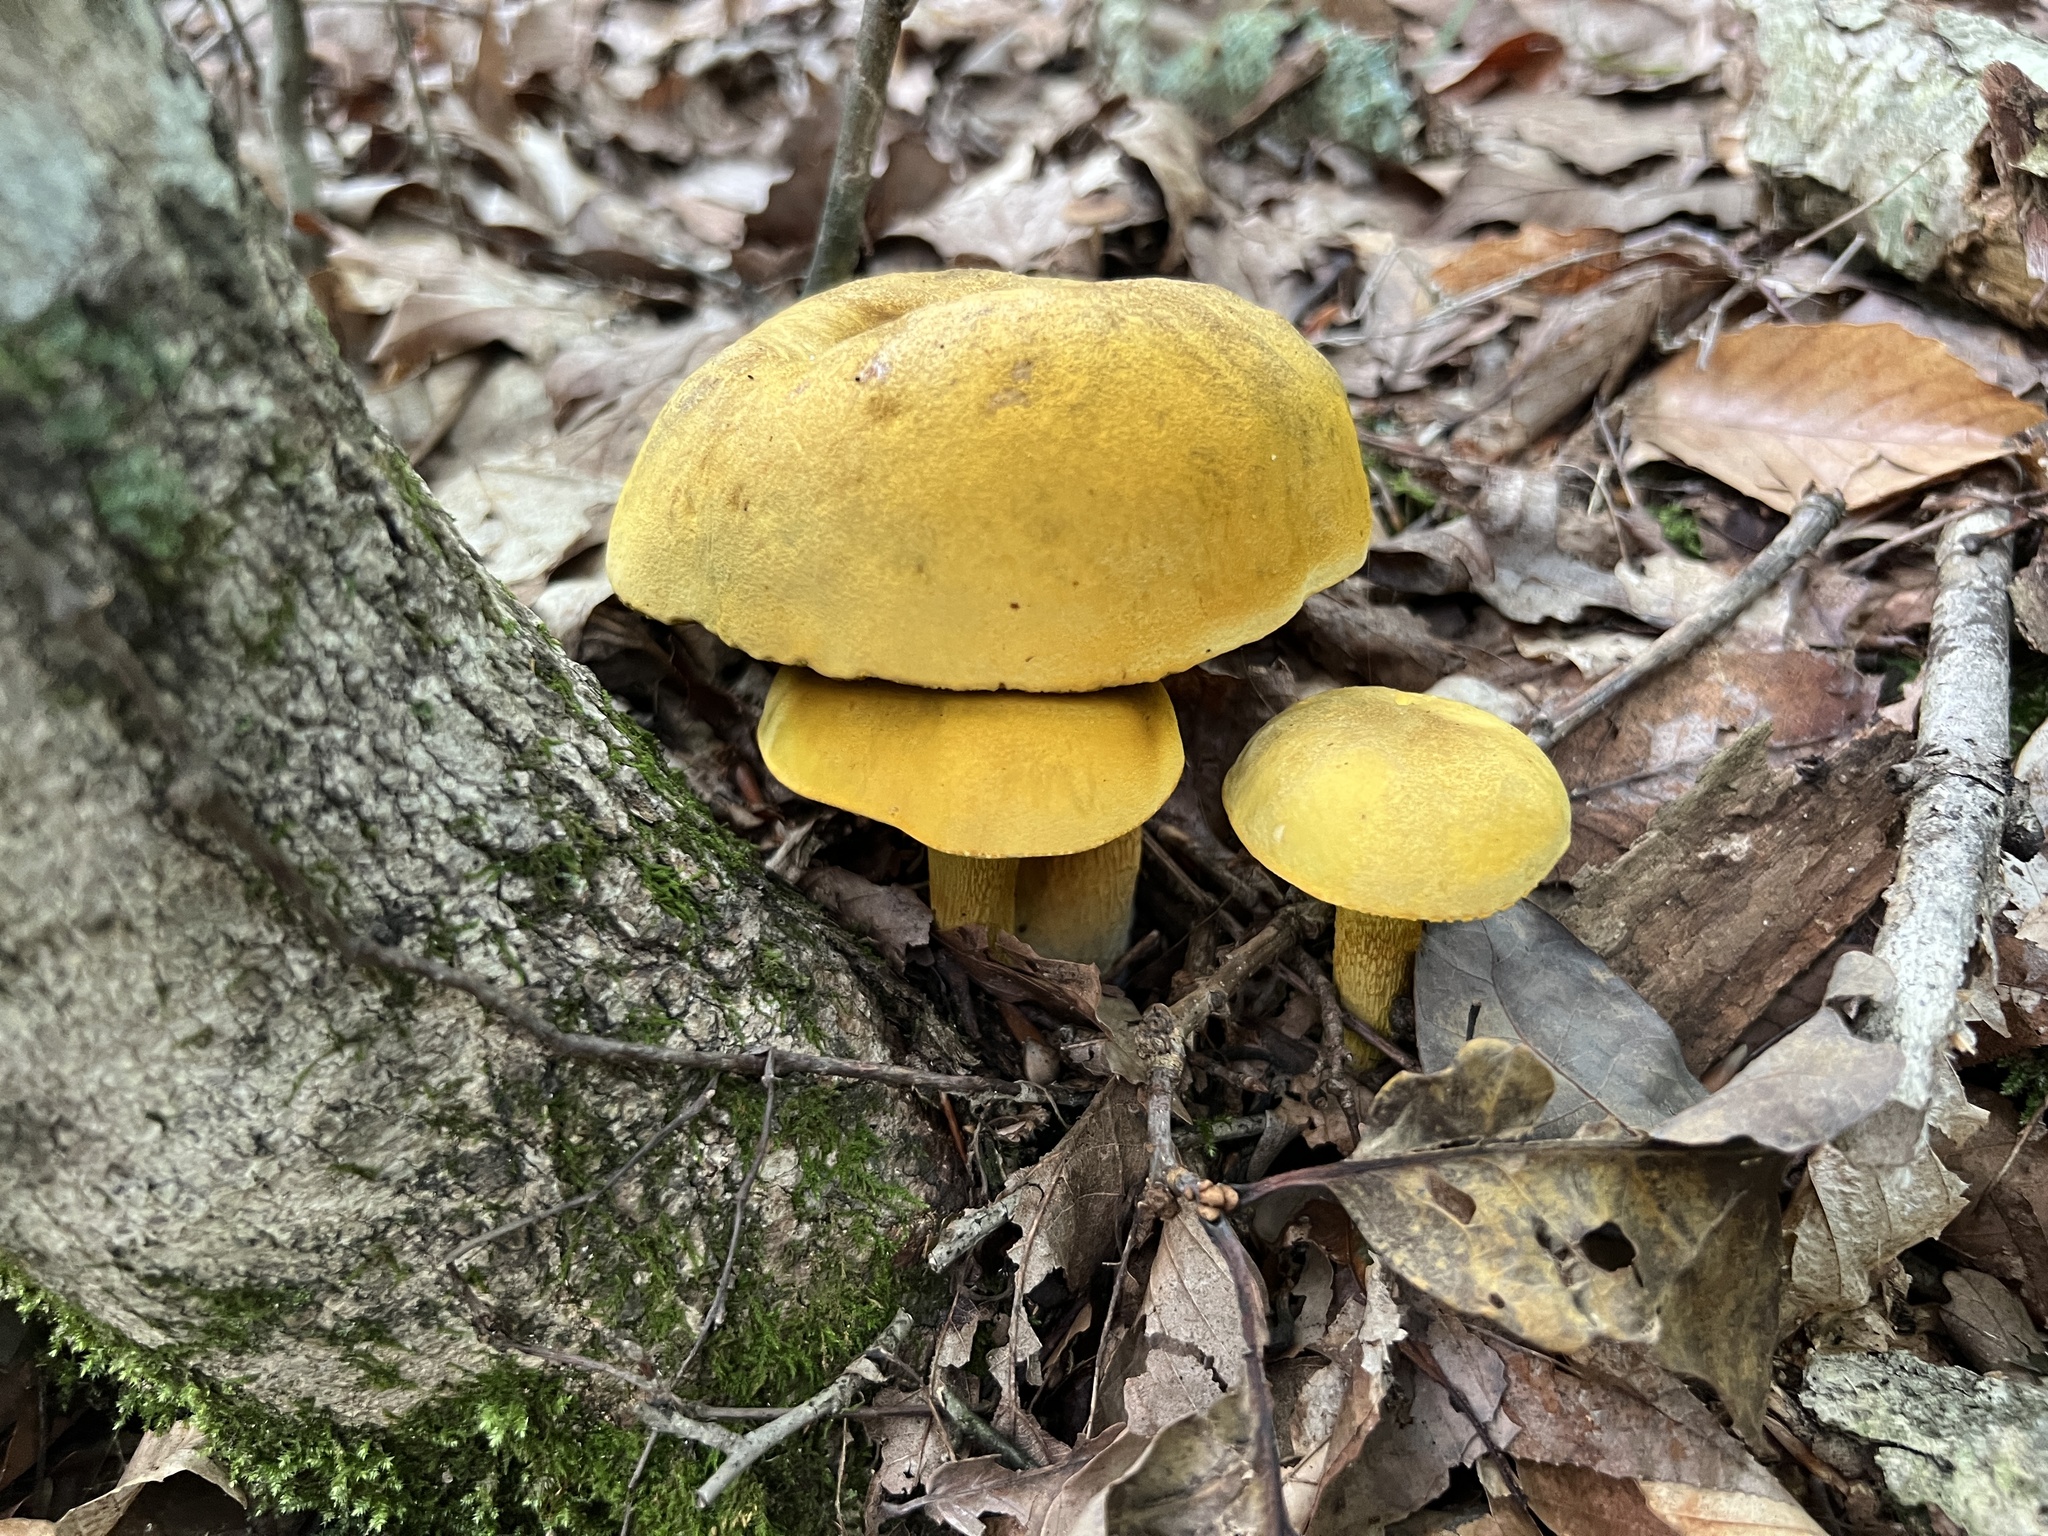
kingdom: Fungi
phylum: Basidiomycota
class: Agaricomycetes
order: Boletales
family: Boletaceae
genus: Retiboletus
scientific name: Retiboletus ornatipes
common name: Ornate-stalked bolete
